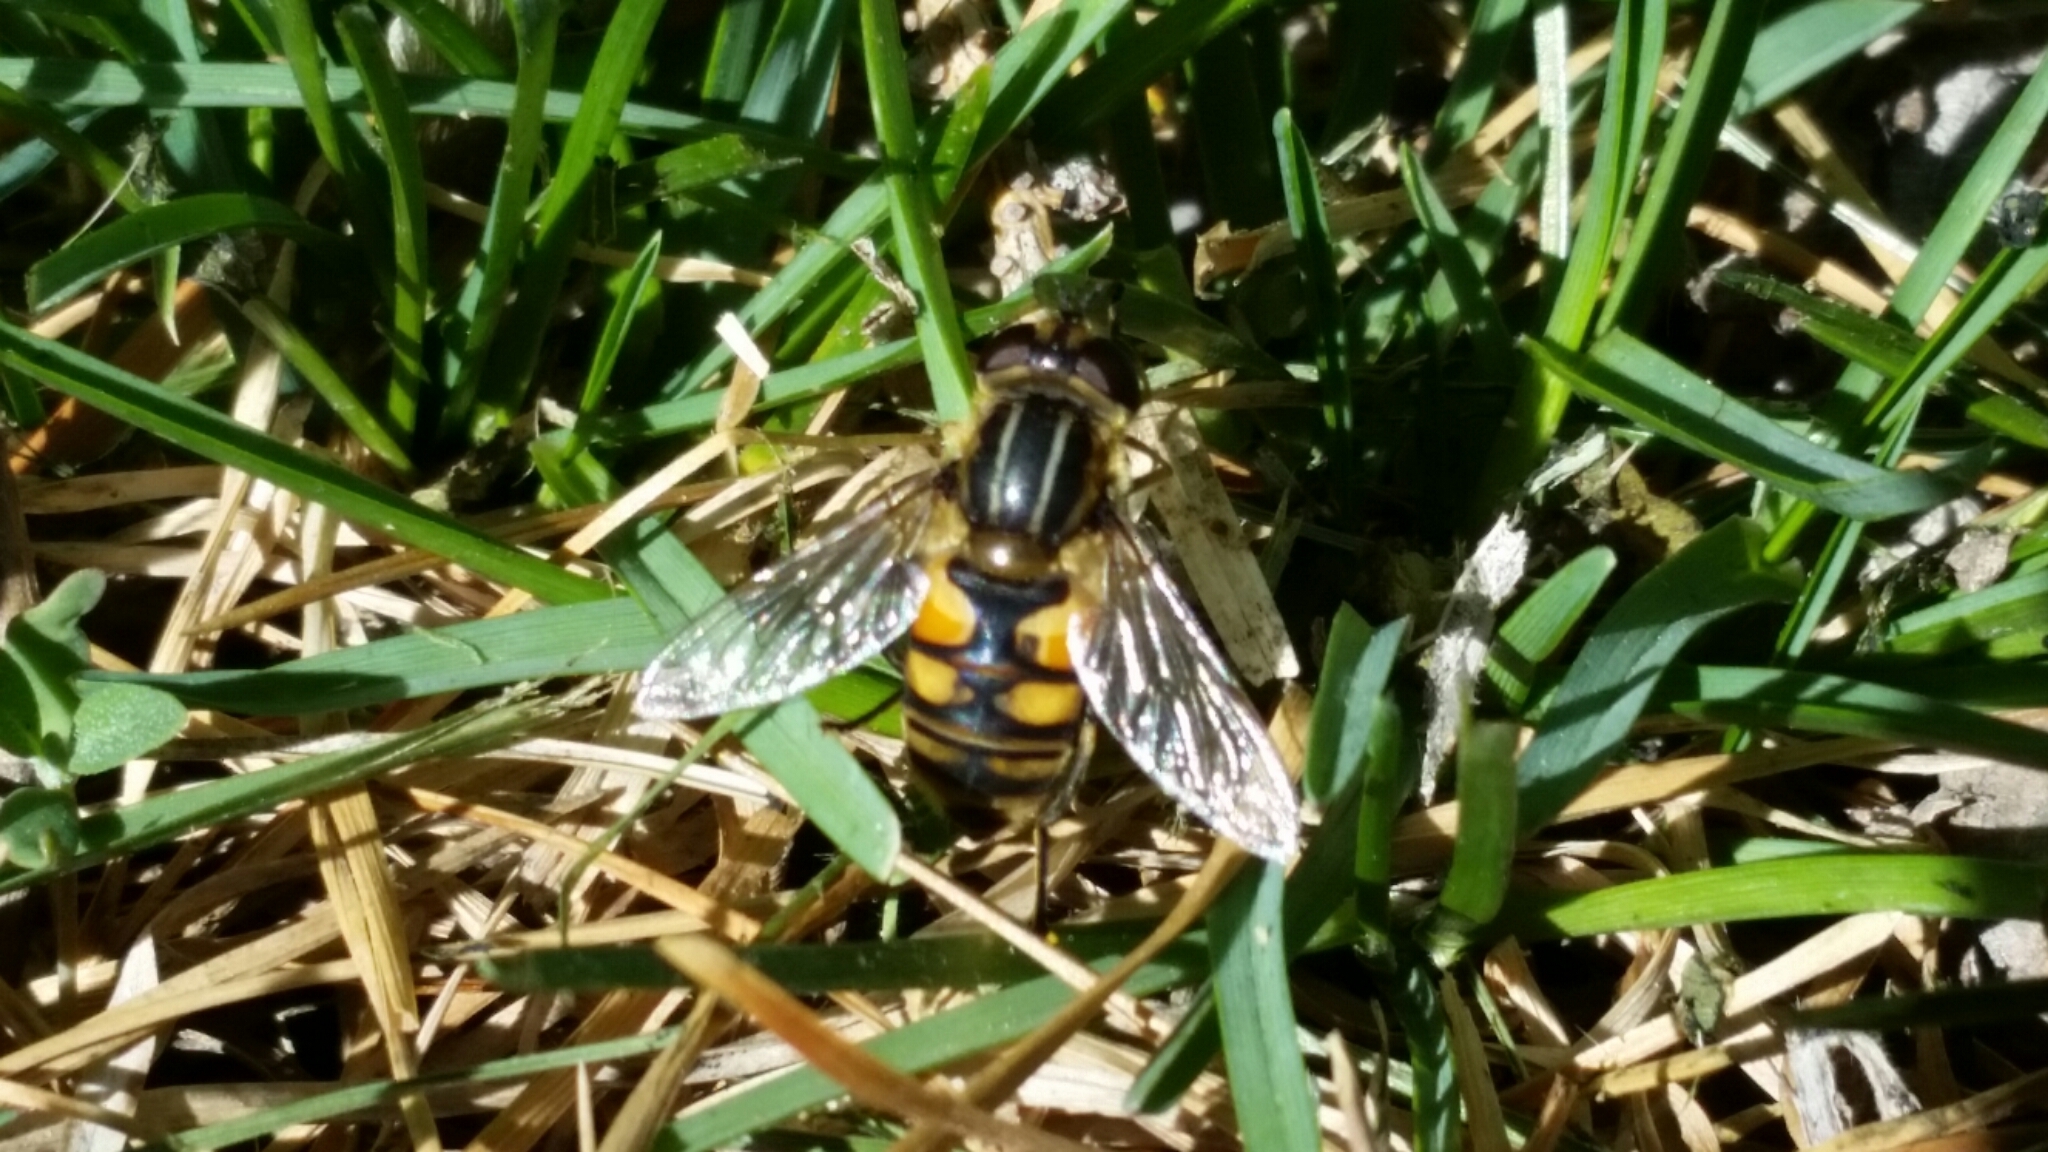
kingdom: Animalia
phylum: Arthropoda
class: Insecta
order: Diptera
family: Syrphidae
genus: Helophilus
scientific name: Helophilus hybridus
